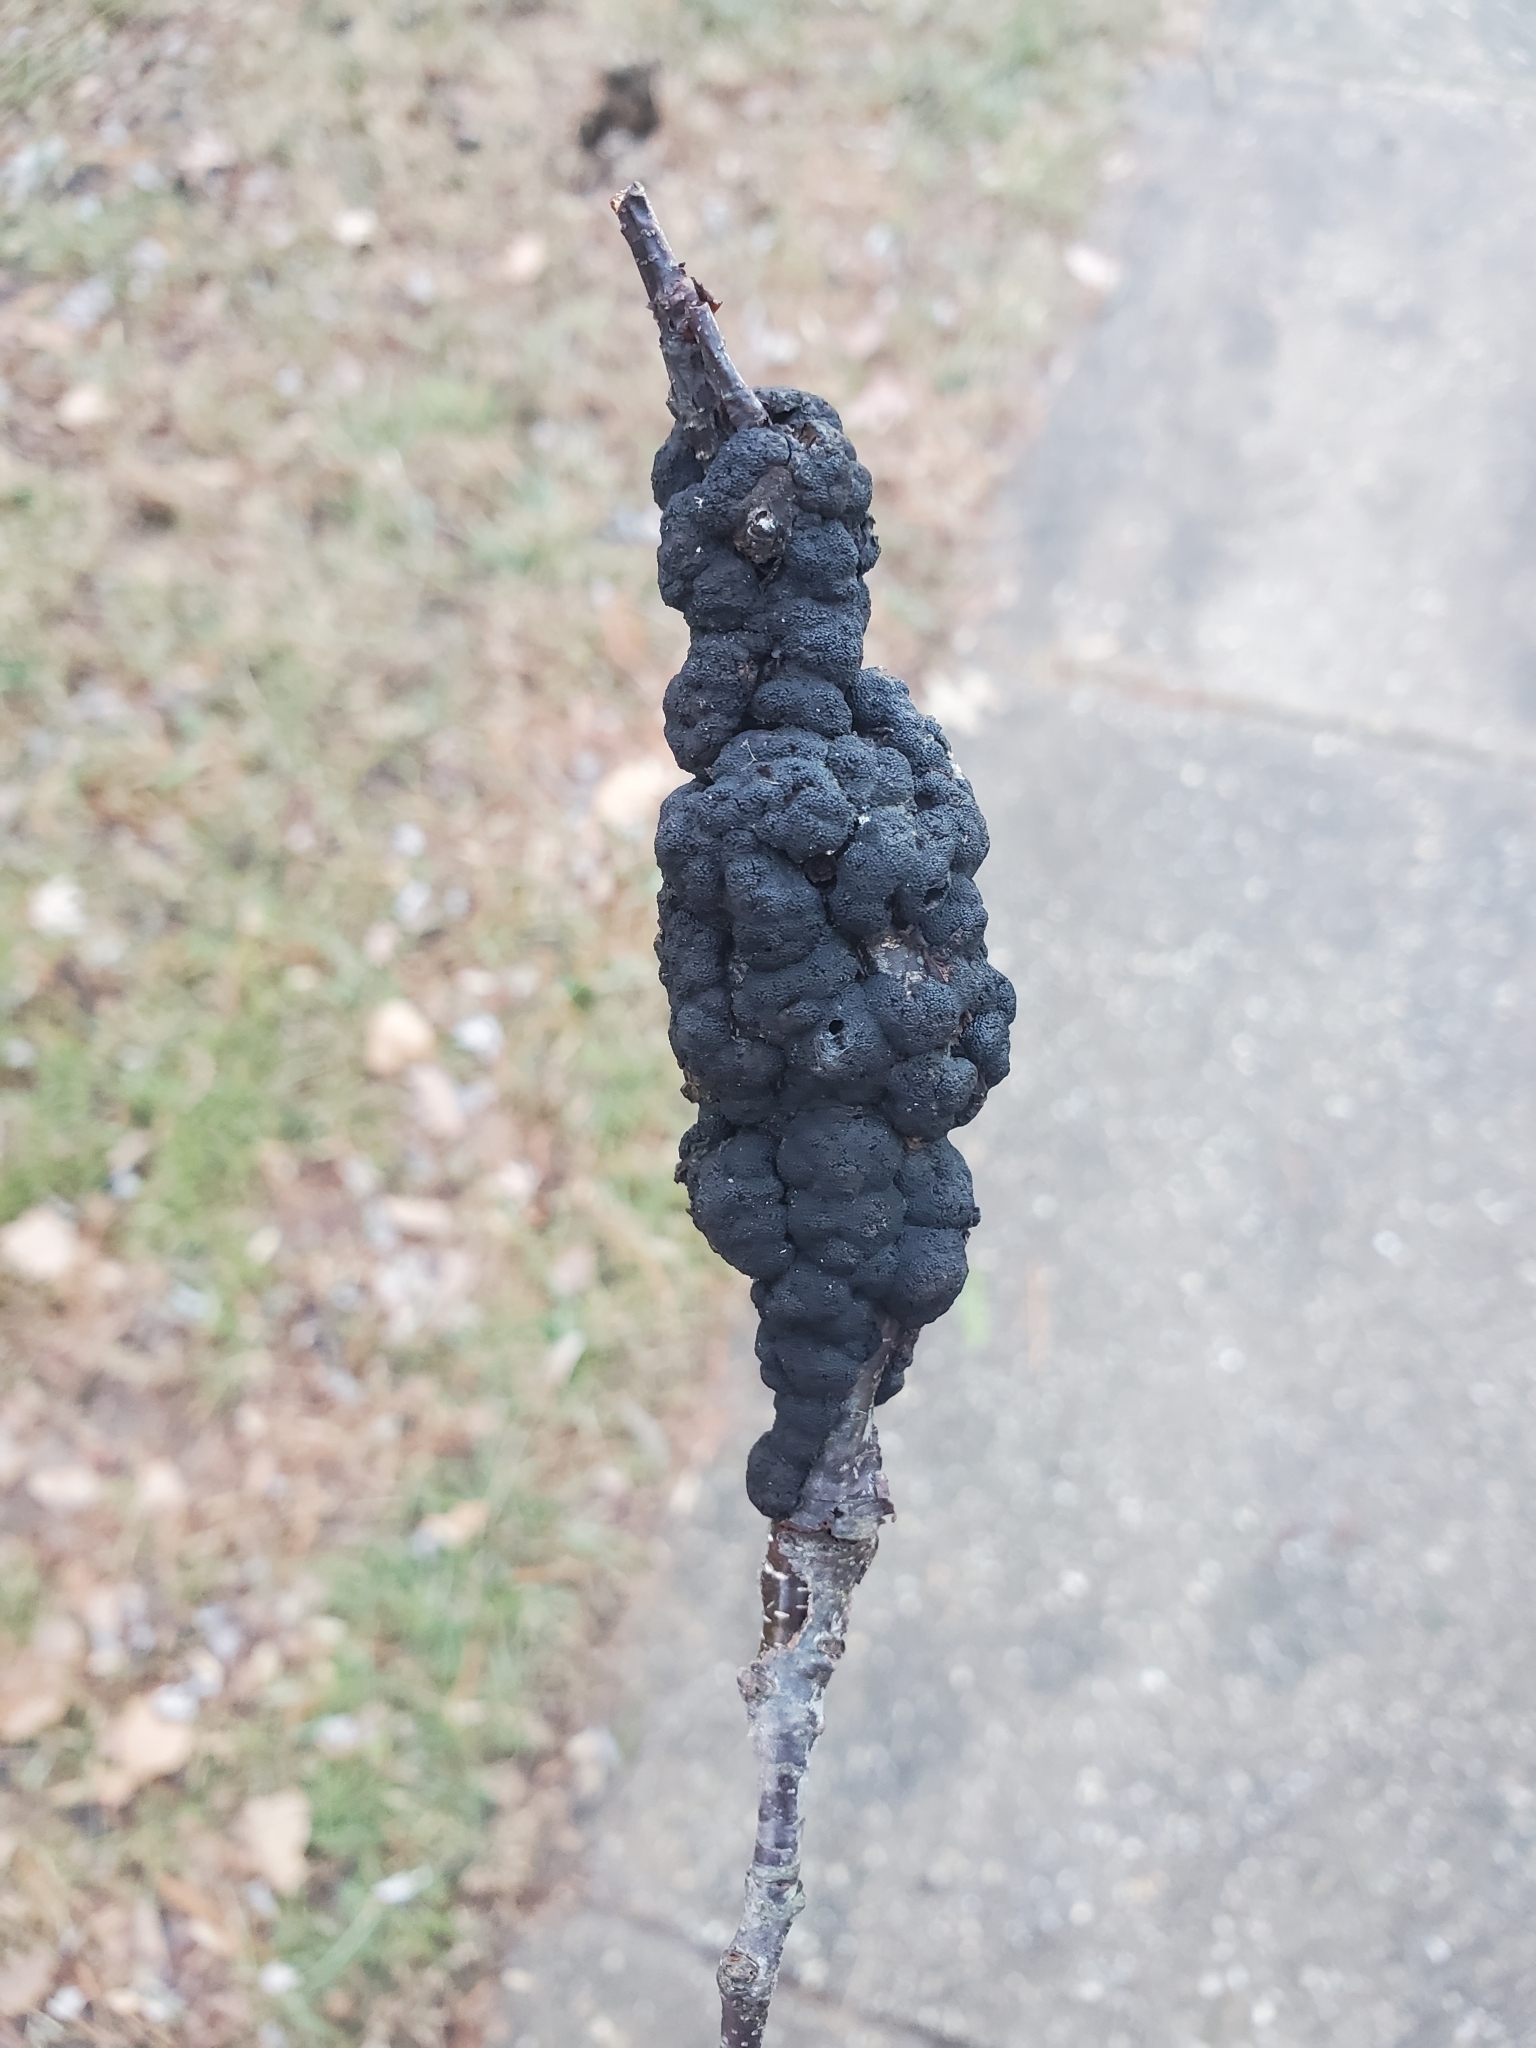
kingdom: Fungi
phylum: Ascomycota
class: Dothideomycetes
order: Venturiales
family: Venturiaceae
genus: Apiosporina
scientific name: Apiosporina morbosa
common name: Black knot
